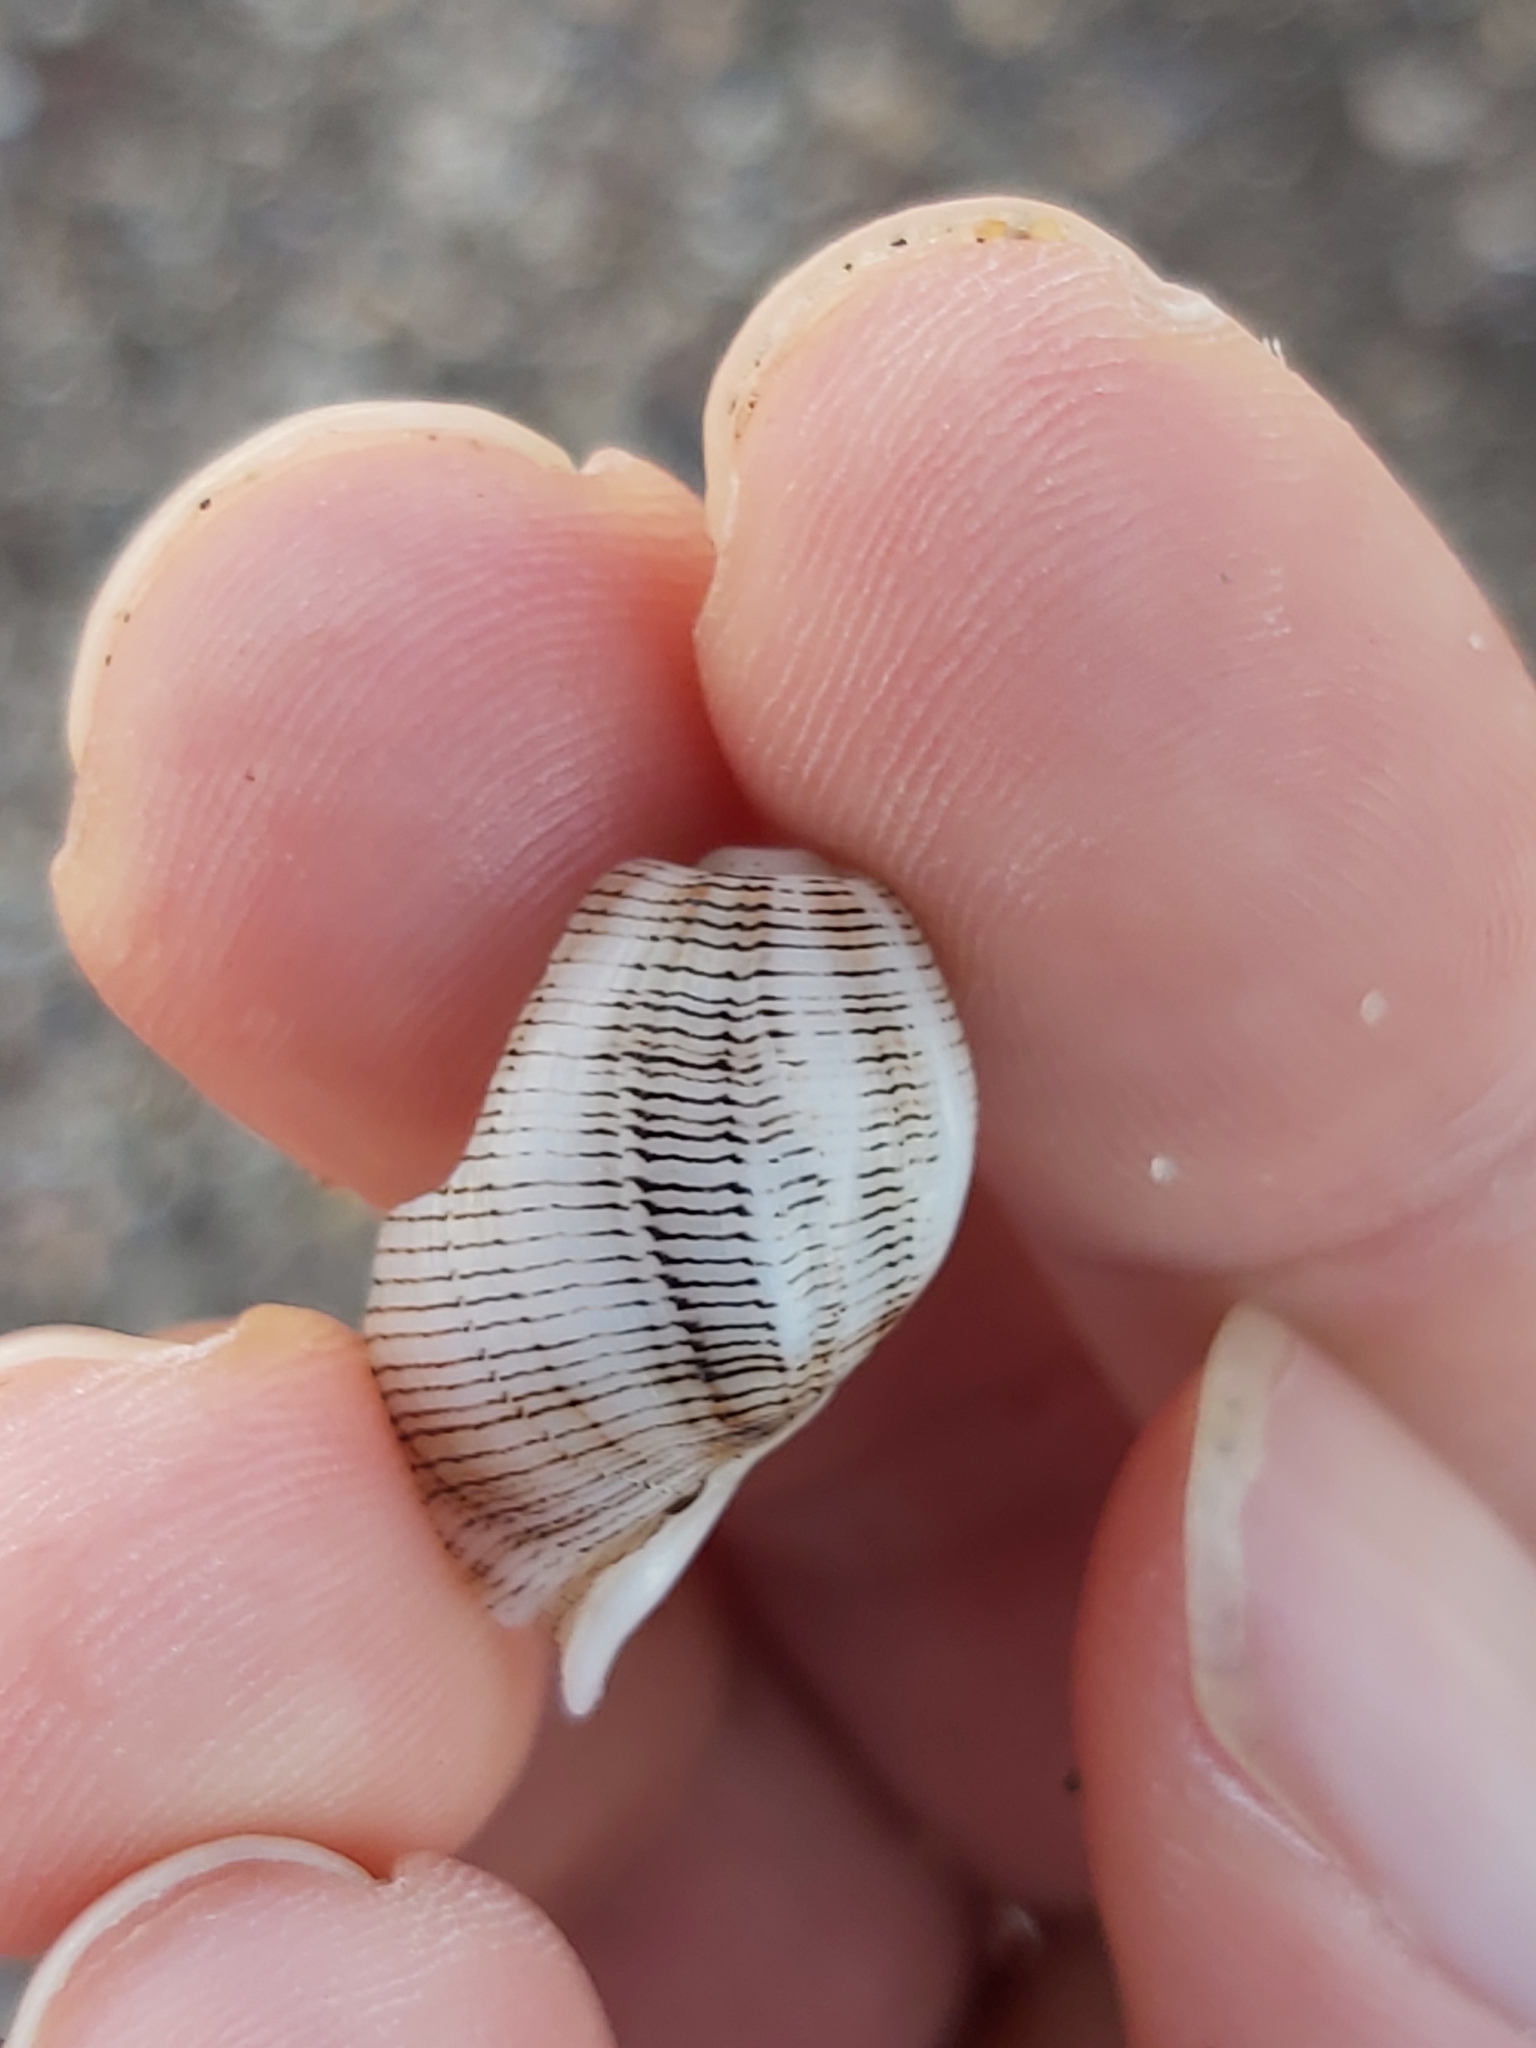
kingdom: Animalia
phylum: Mollusca
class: Gastropoda
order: Cephalaspidea
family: Aplustridae
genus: Hydatina
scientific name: Hydatina physis
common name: Brown-line paperbubble
